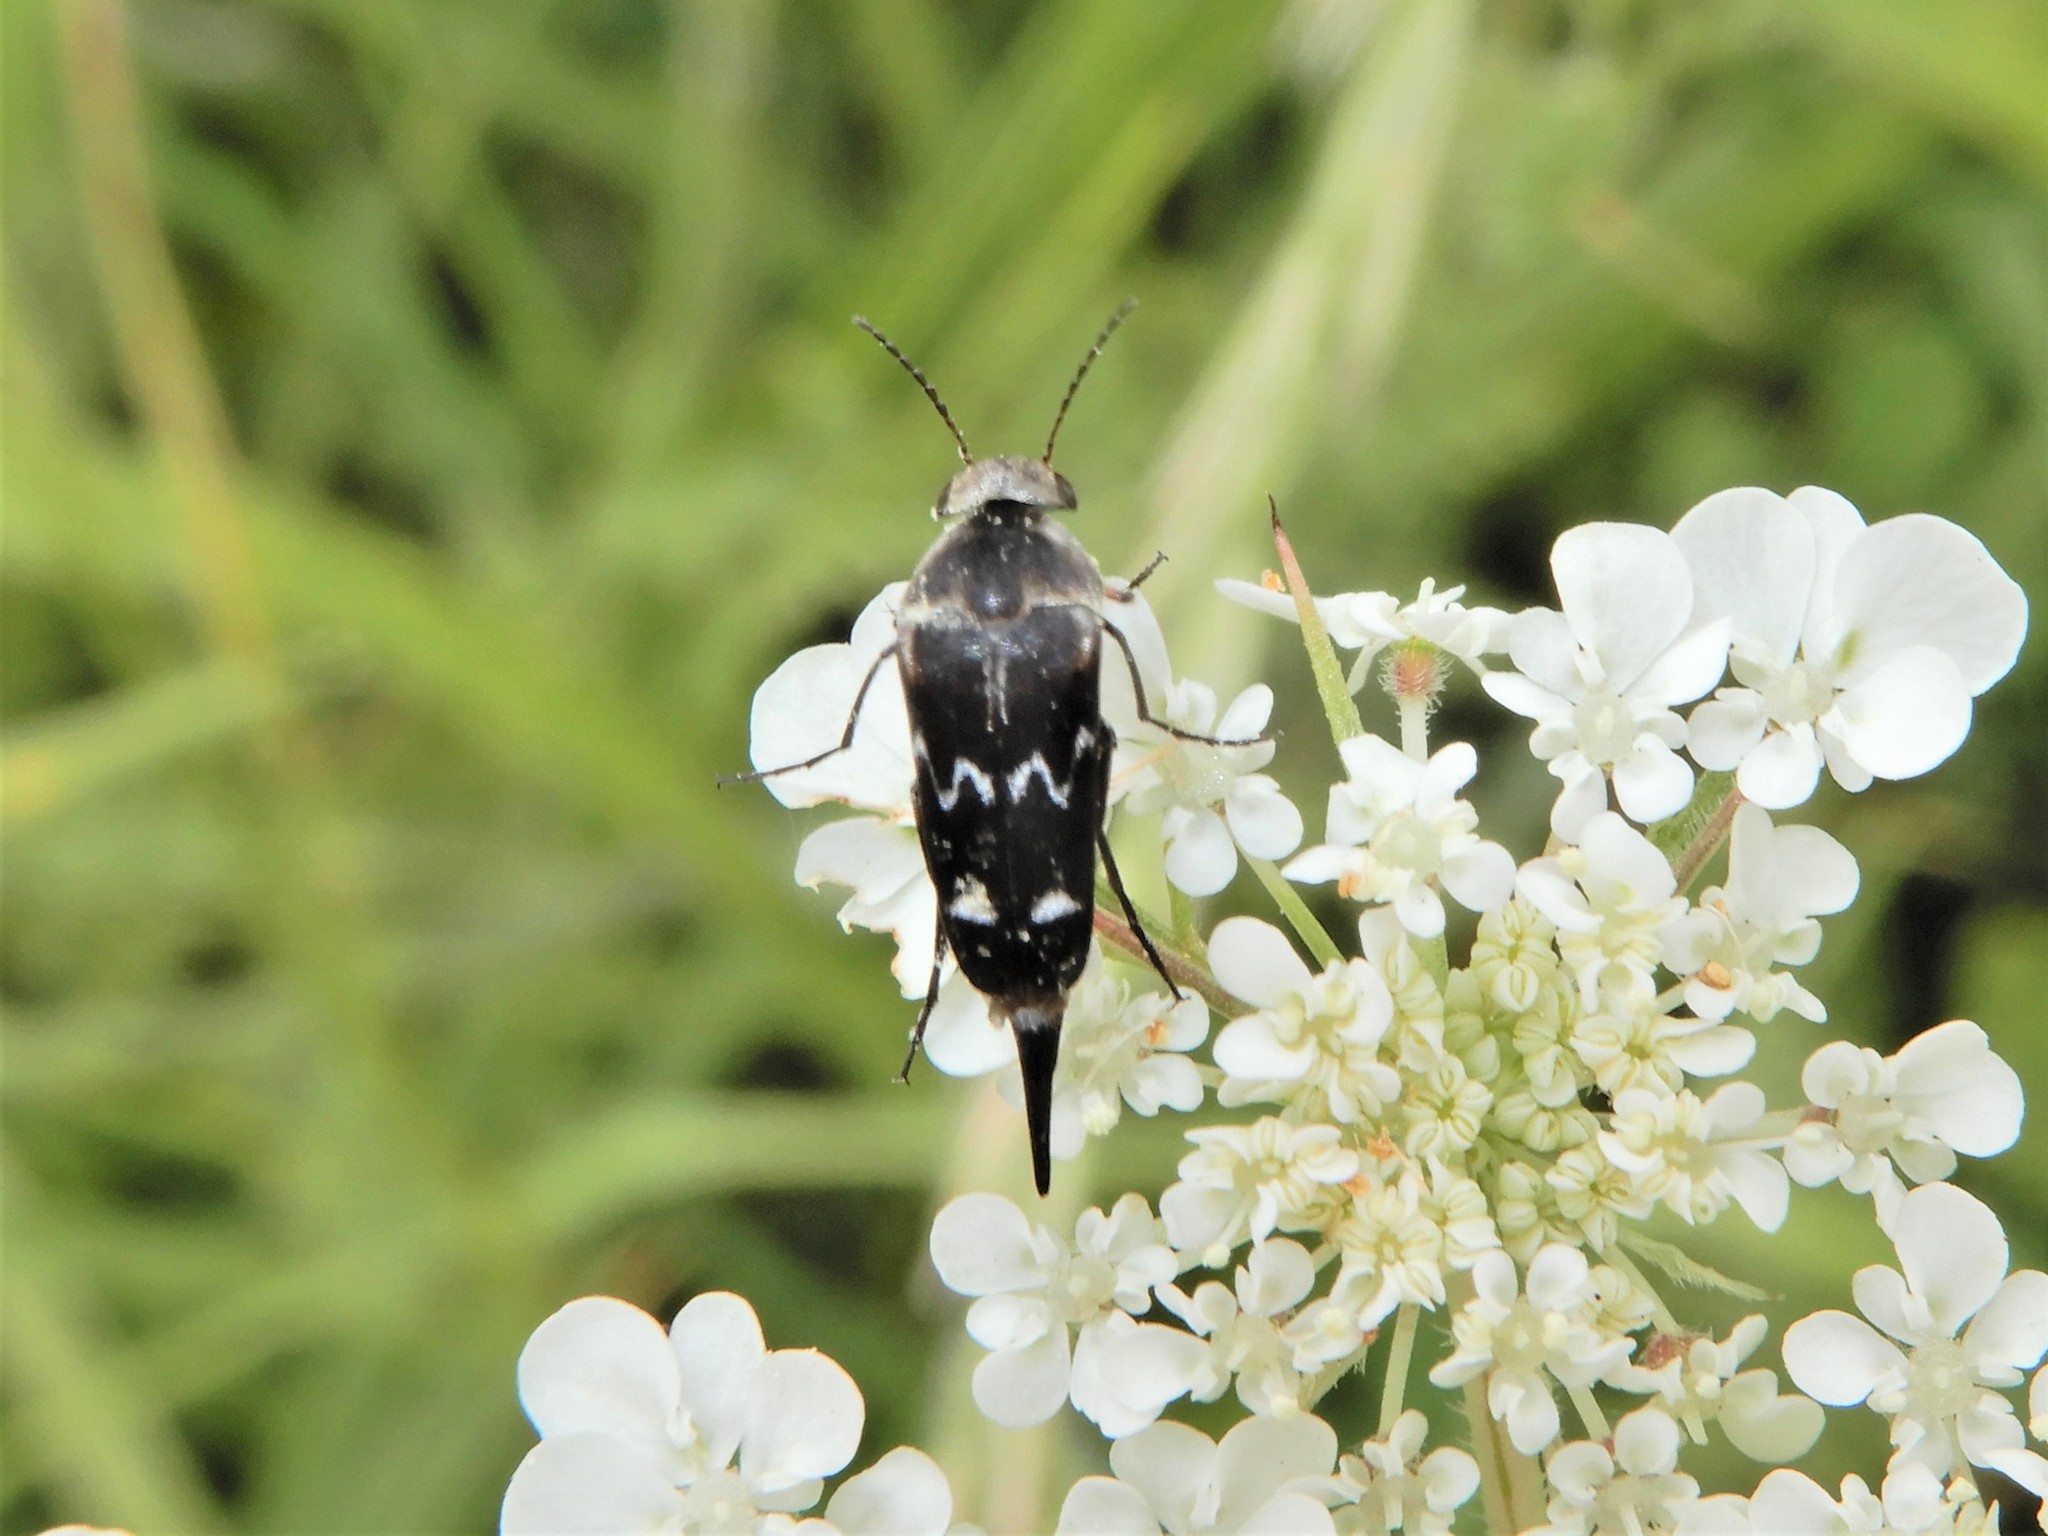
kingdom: Animalia
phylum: Arthropoda
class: Insecta
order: Coleoptera
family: Mordellidae
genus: Mordella
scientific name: Mordella
